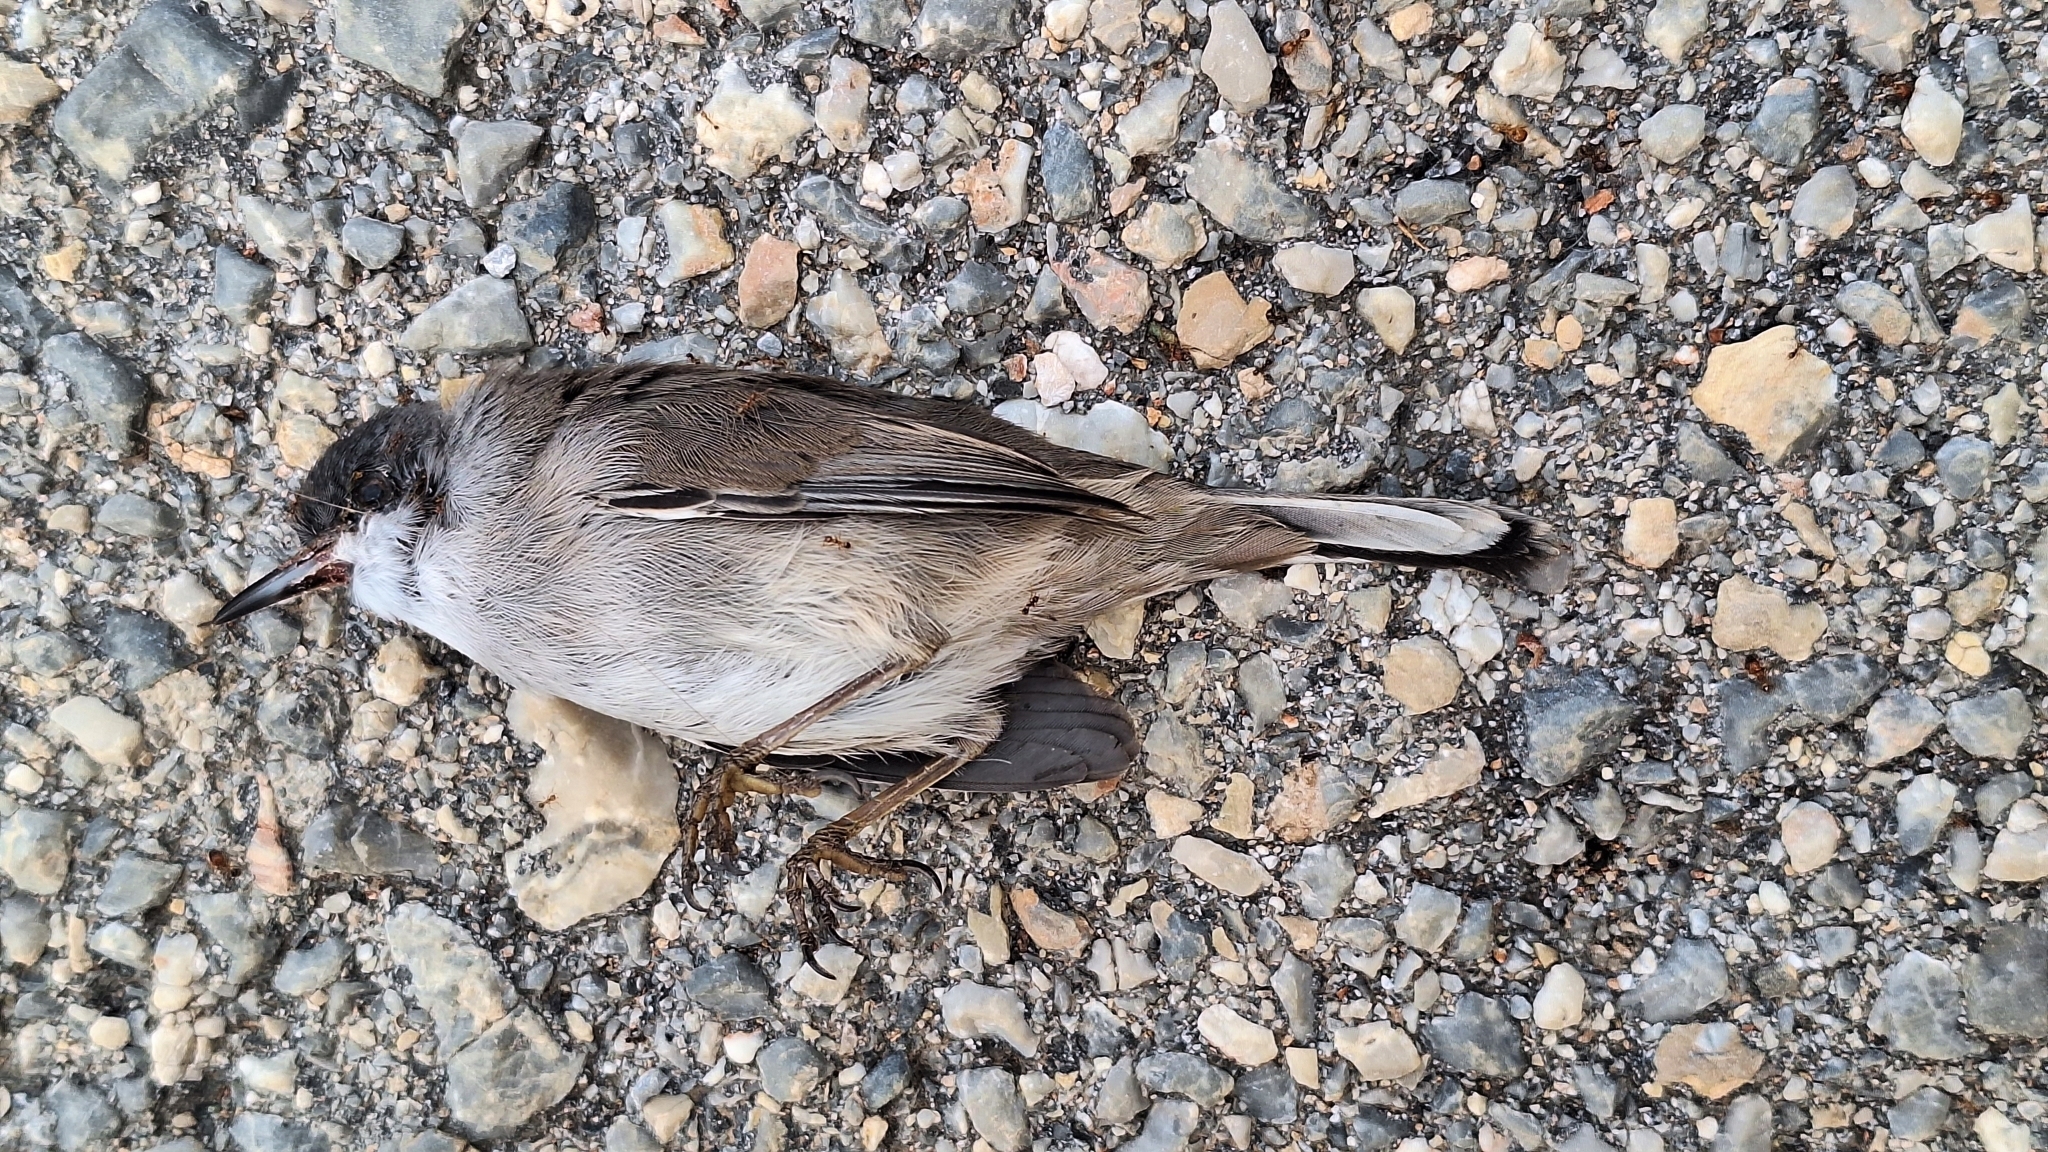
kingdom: Animalia
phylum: Chordata
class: Aves
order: Passeriformes
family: Sylviidae
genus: Curruca
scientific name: Curruca melanocephala
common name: Sardinian warbler
